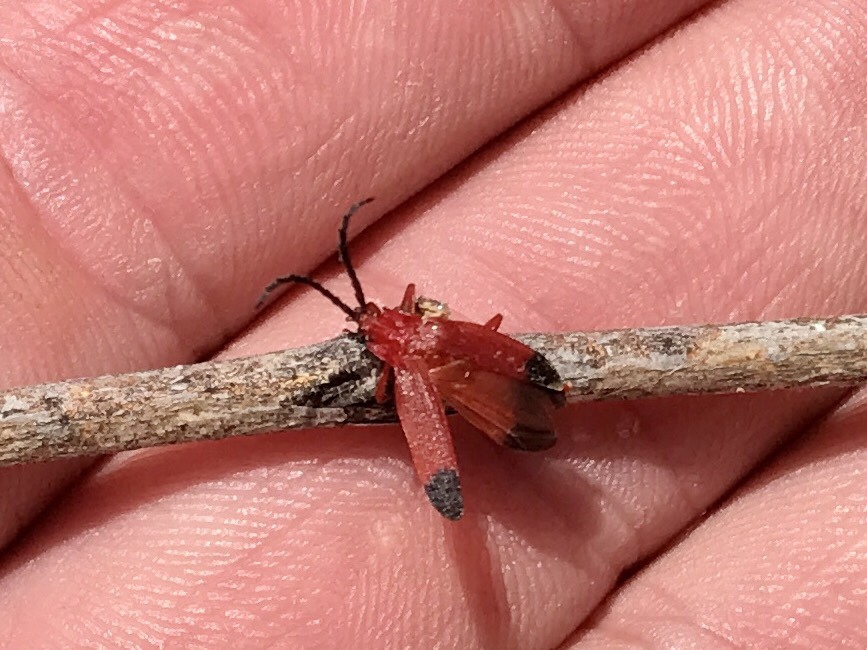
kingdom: Animalia
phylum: Arthropoda
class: Insecta
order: Coleoptera
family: Lycidae
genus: Lycus
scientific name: Lycus sanguineus
